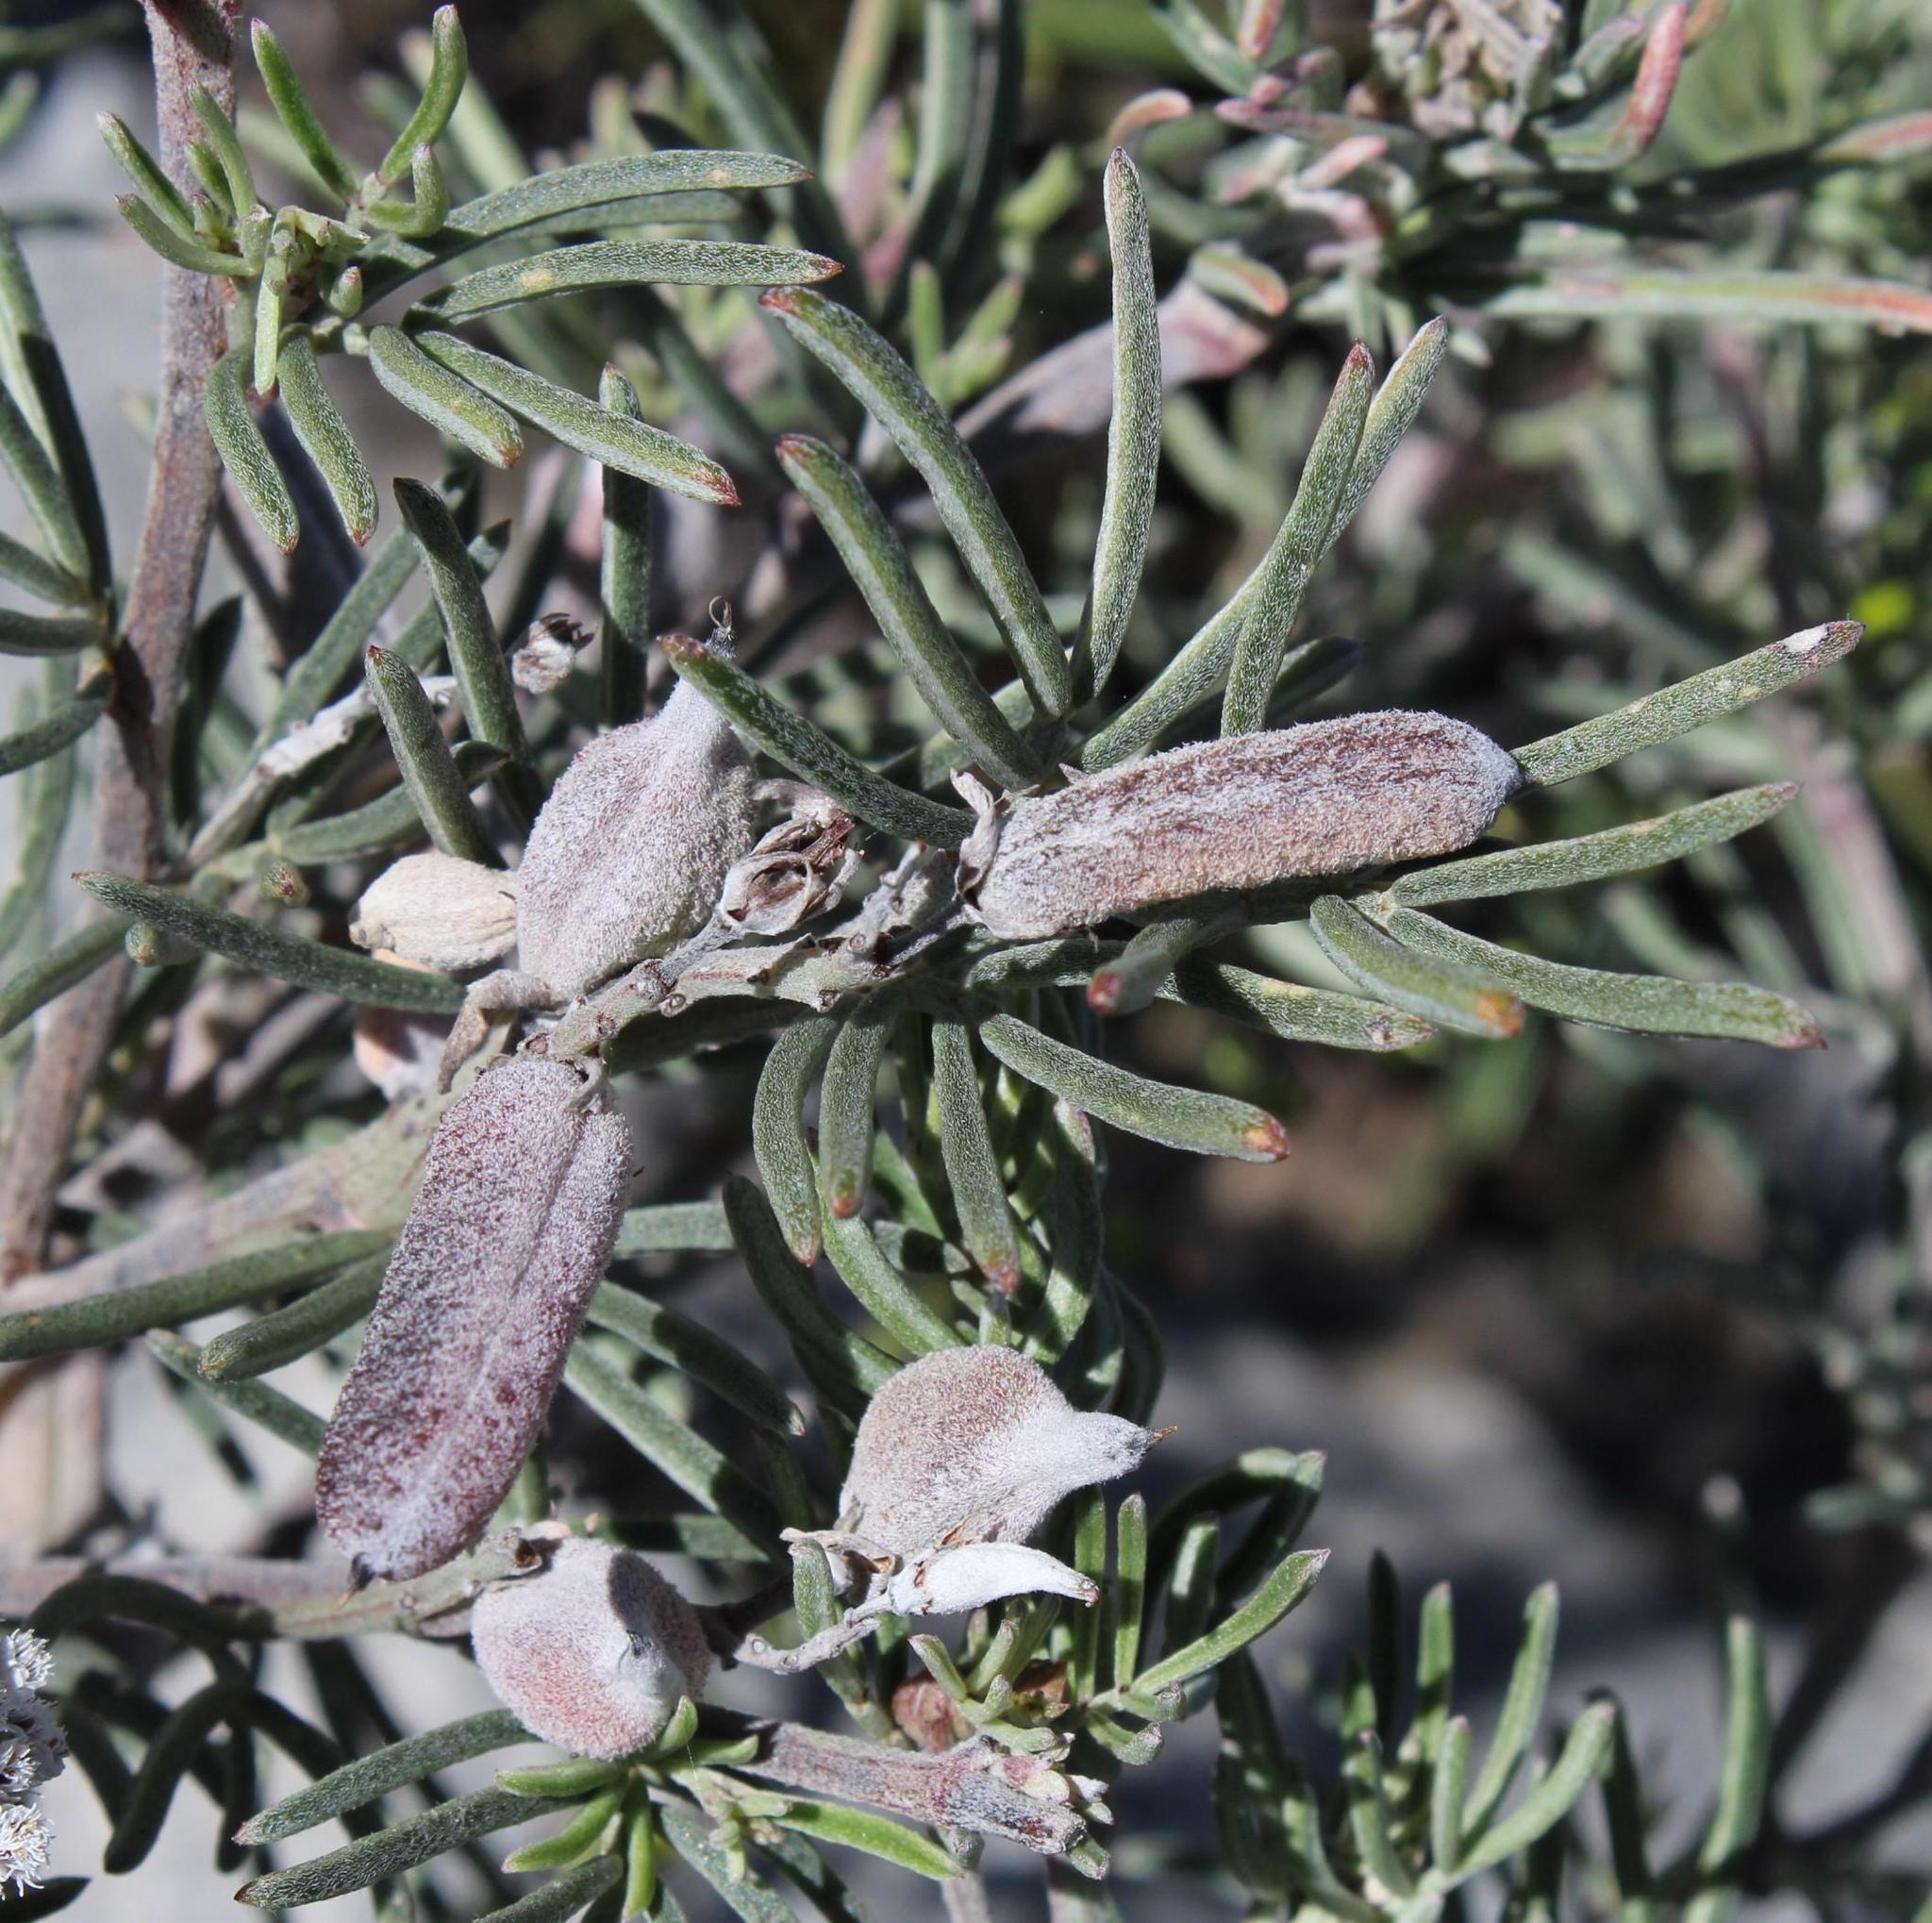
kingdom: Plantae
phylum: Tracheophyta
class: Magnoliopsida
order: Fabales
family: Fabaceae
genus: Indigofera
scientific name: Indigofera
